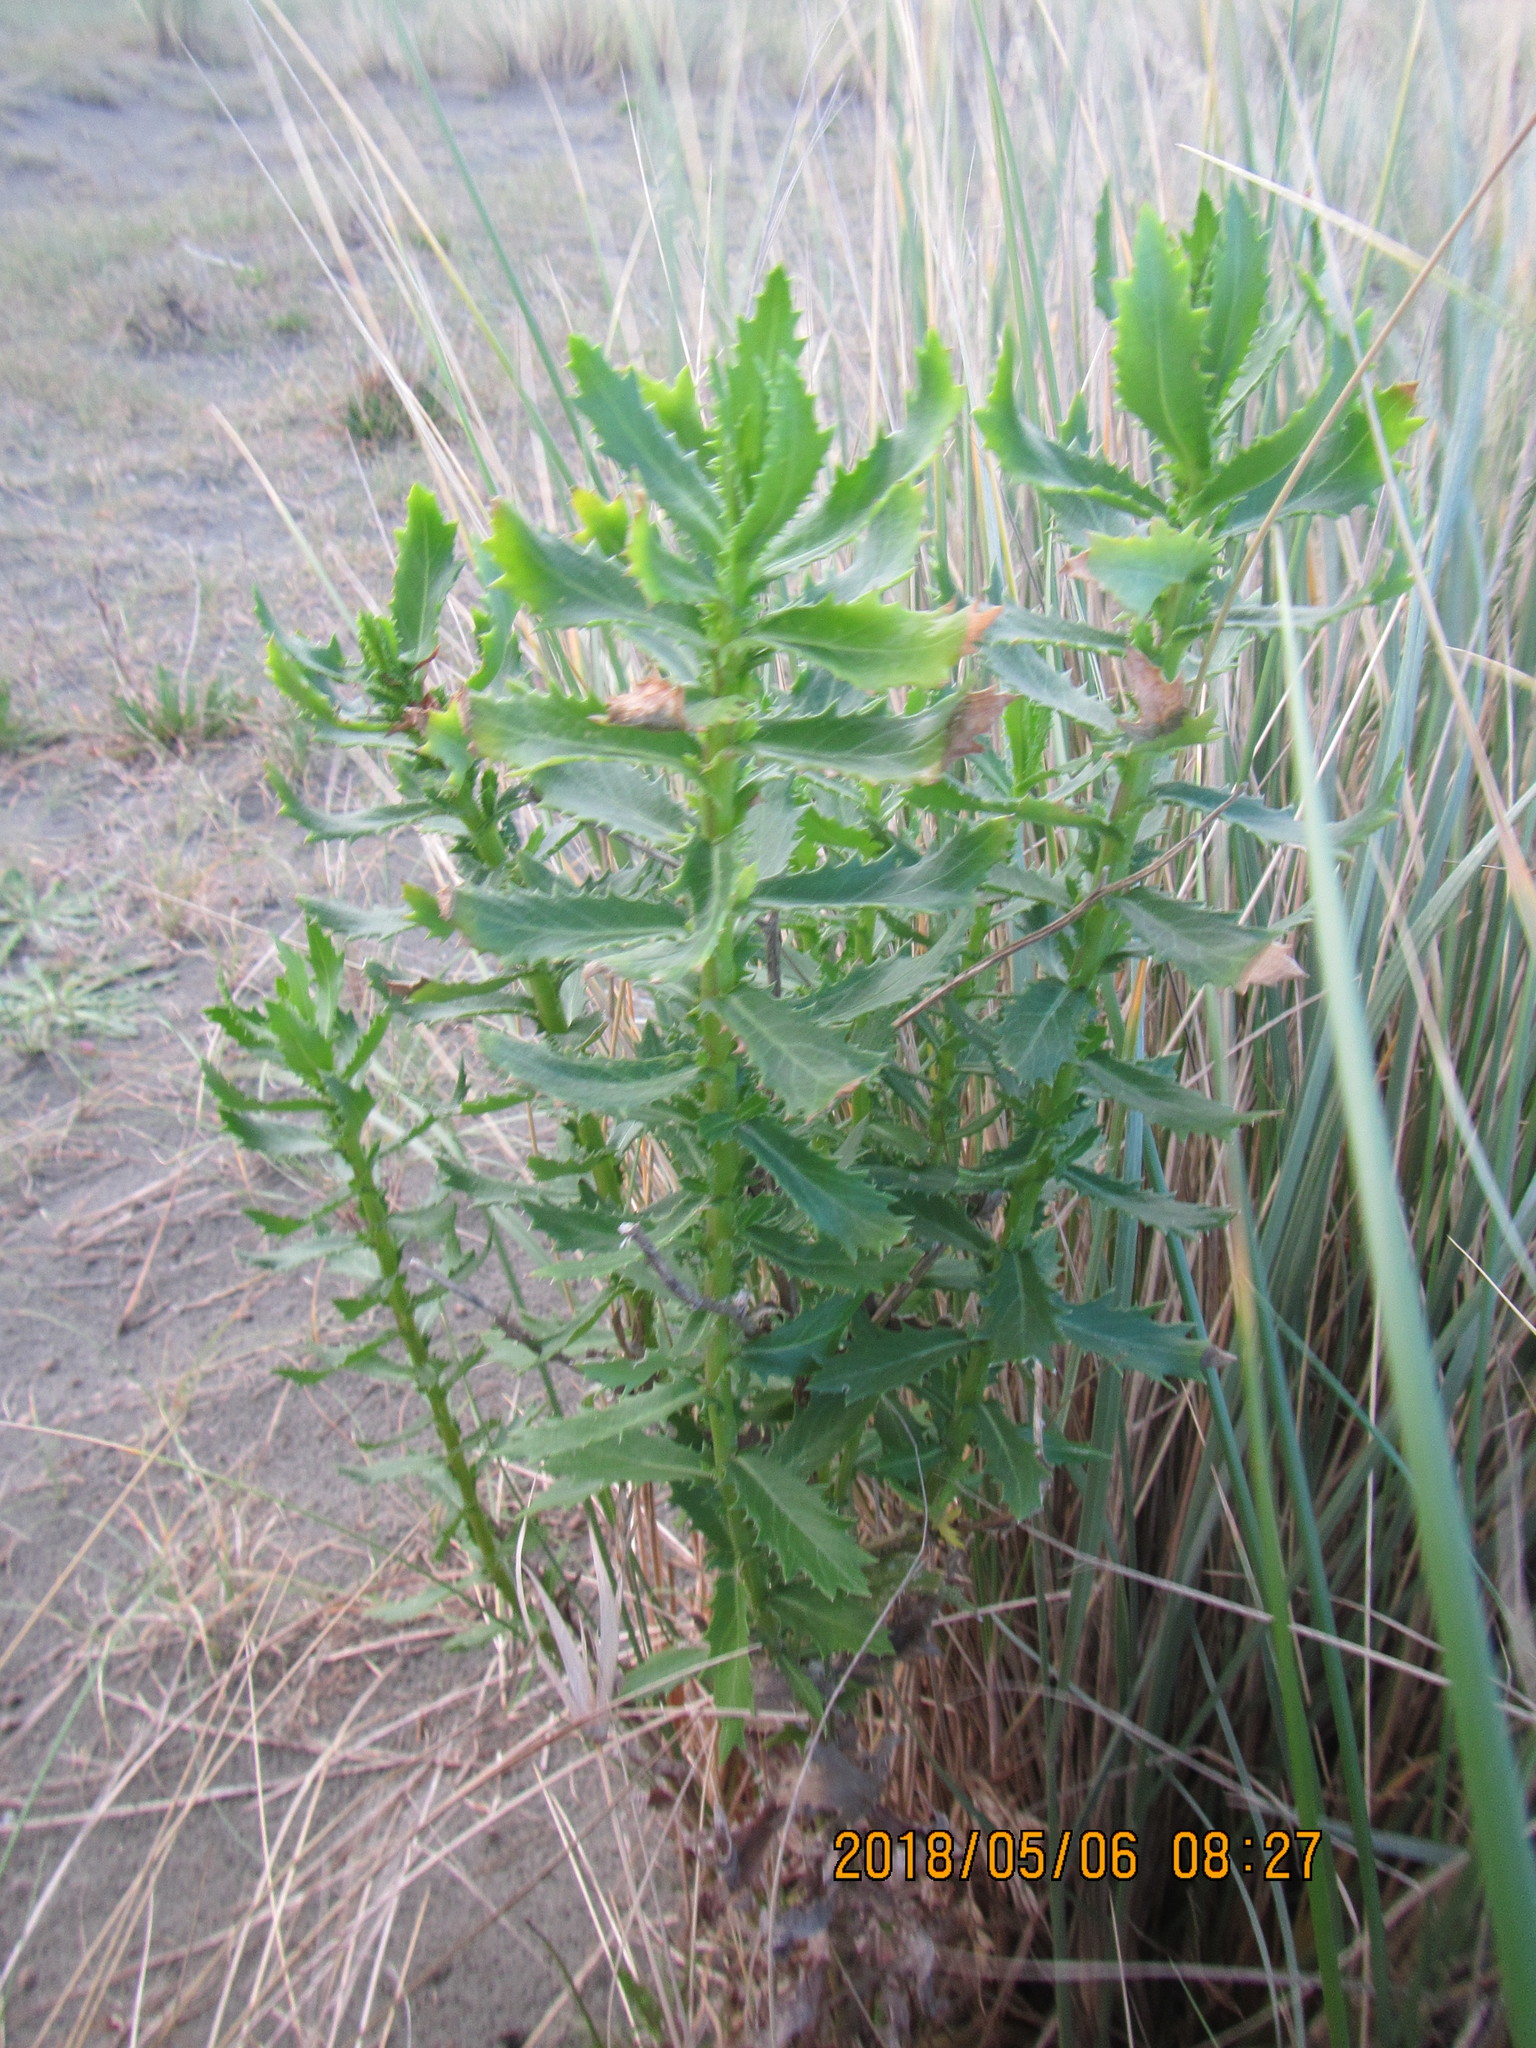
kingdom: Plantae
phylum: Tracheophyta
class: Magnoliopsida
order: Asterales
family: Asteraceae
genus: Senecio
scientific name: Senecio glastifolius
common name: Woad-leaved ragwort
